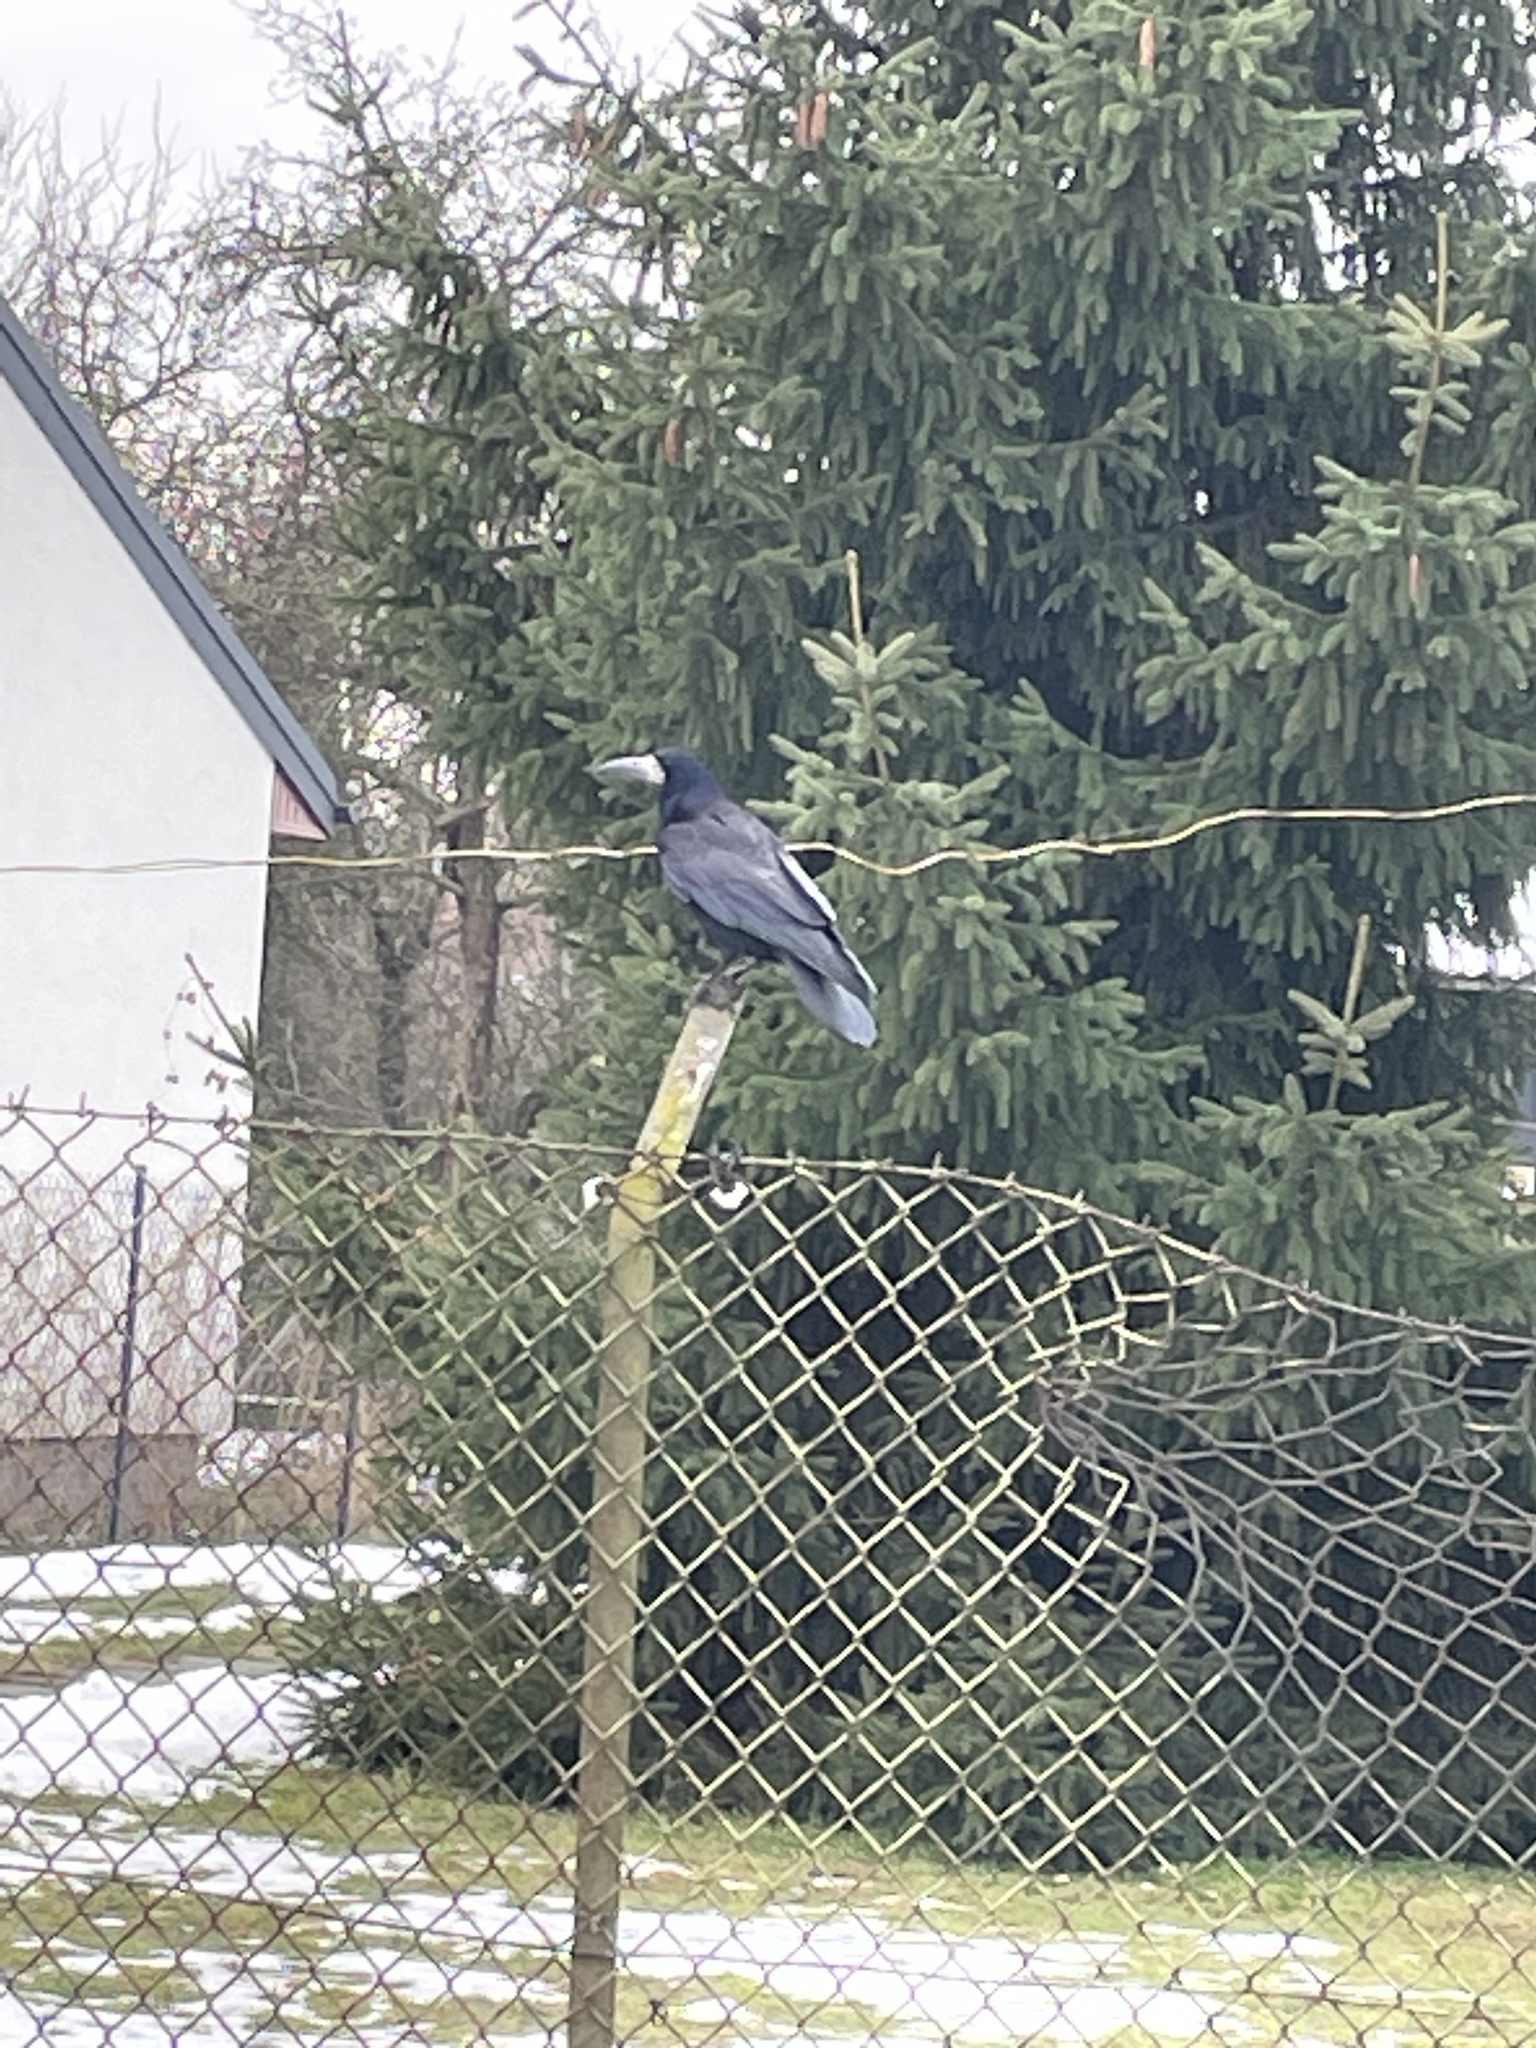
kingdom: Animalia
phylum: Chordata
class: Aves
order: Passeriformes
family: Corvidae
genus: Corvus
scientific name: Corvus frugilegus
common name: Rook
